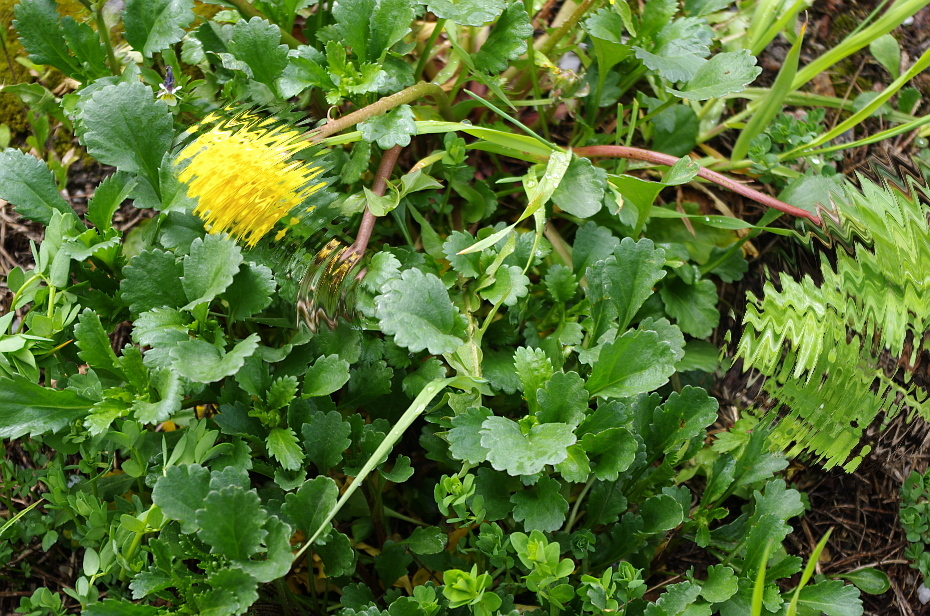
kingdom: Plantae
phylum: Tracheophyta
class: Magnoliopsida
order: Asterales
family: Asteraceae
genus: Leucanthemum
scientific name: Leucanthemum vulgare
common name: Oxeye daisy
